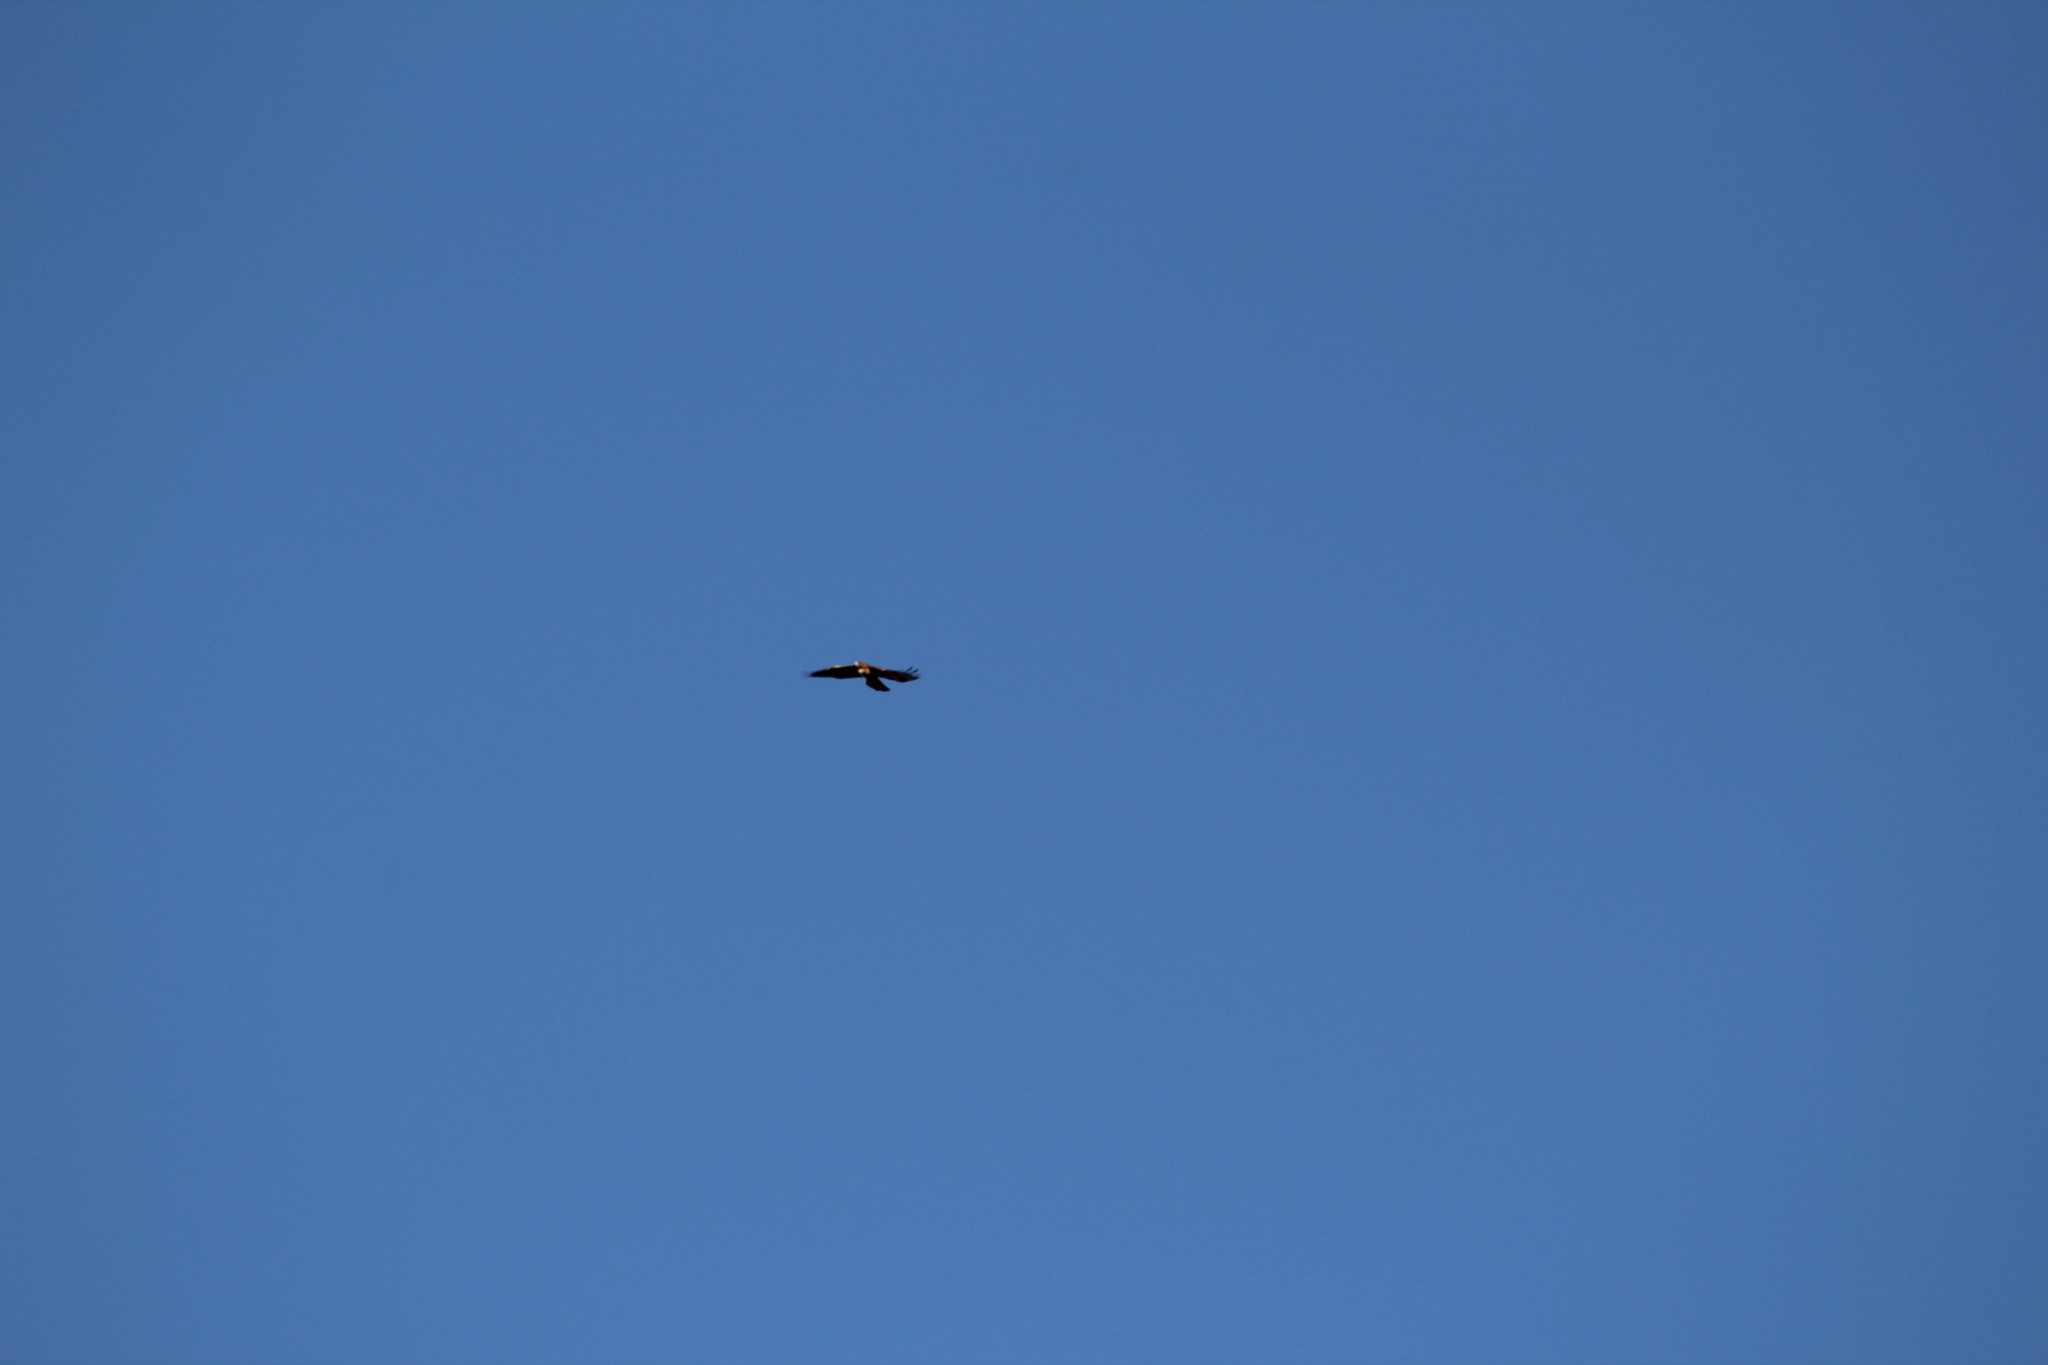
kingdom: Animalia
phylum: Chordata
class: Aves
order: Accipitriformes
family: Accipitridae
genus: Buteo
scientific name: Buteo jamaicensis
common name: Red-tailed hawk
